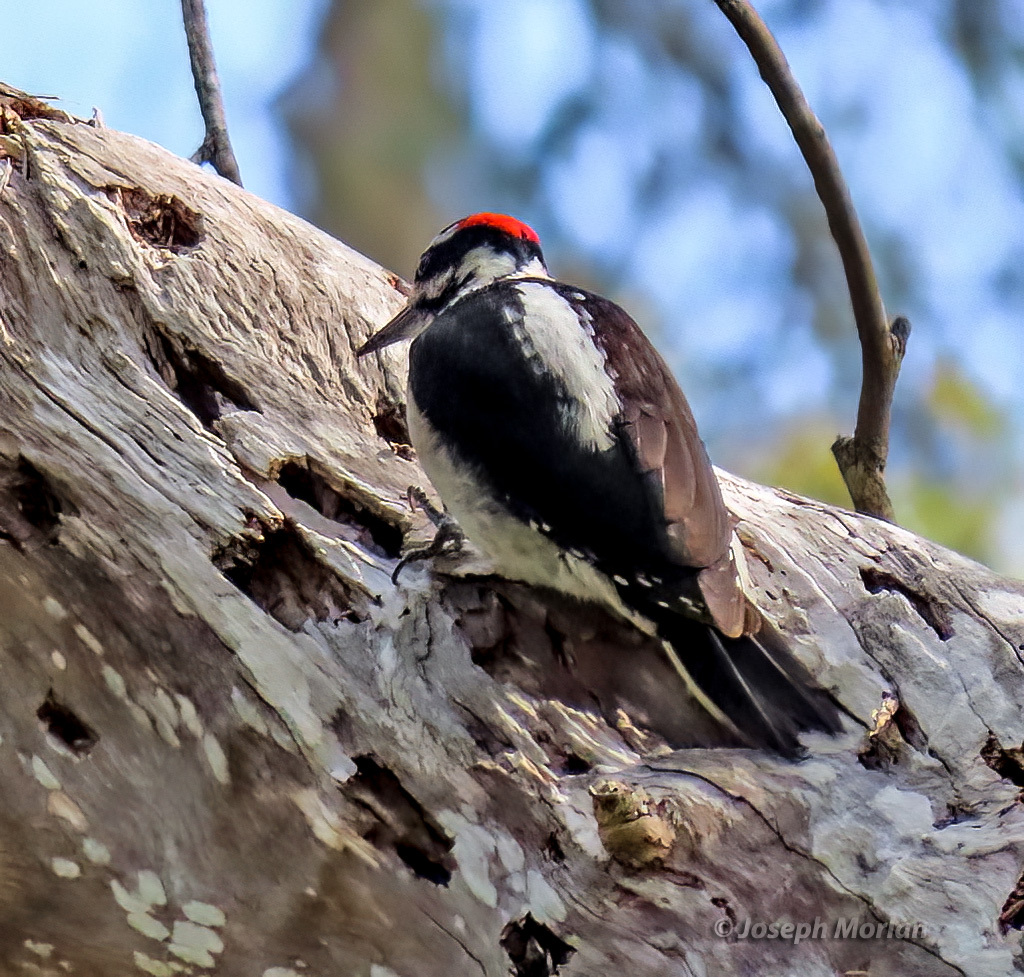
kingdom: Animalia
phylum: Chordata
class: Aves
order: Piciformes
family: Picidae
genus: Leuconotopicus
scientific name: Leuconotopicus villosus
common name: Hairy woodpecker
